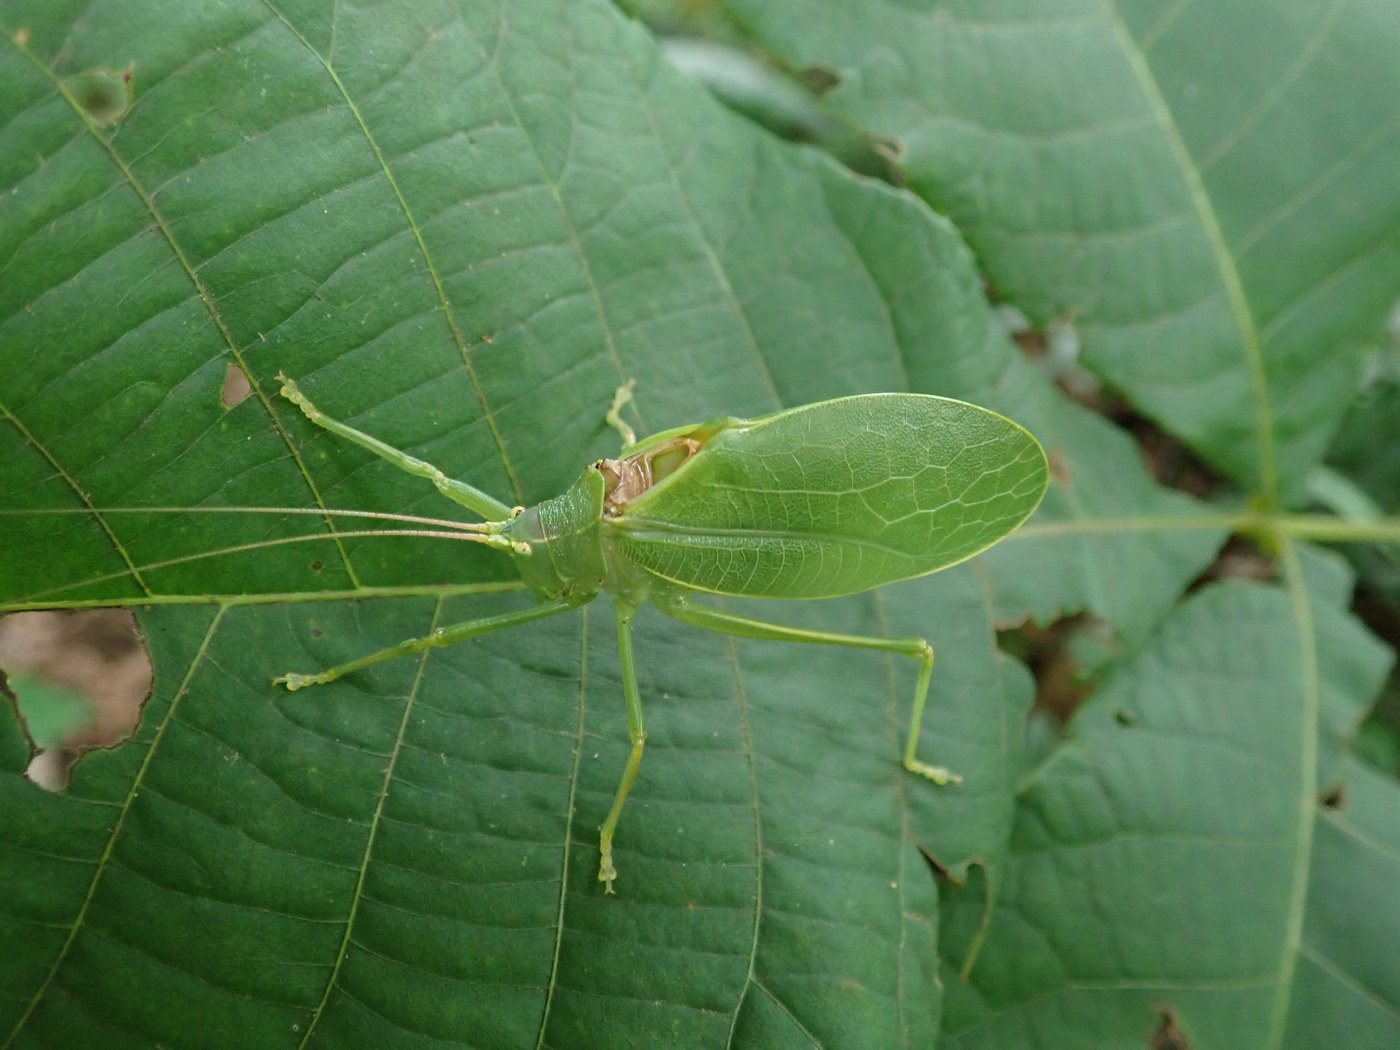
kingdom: Animalia
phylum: Arthropoda
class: Insecta
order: Orthoptera
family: Tettigoniidae
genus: Pterophylla
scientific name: Pterophylla camellifolia
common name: Common true katydid
